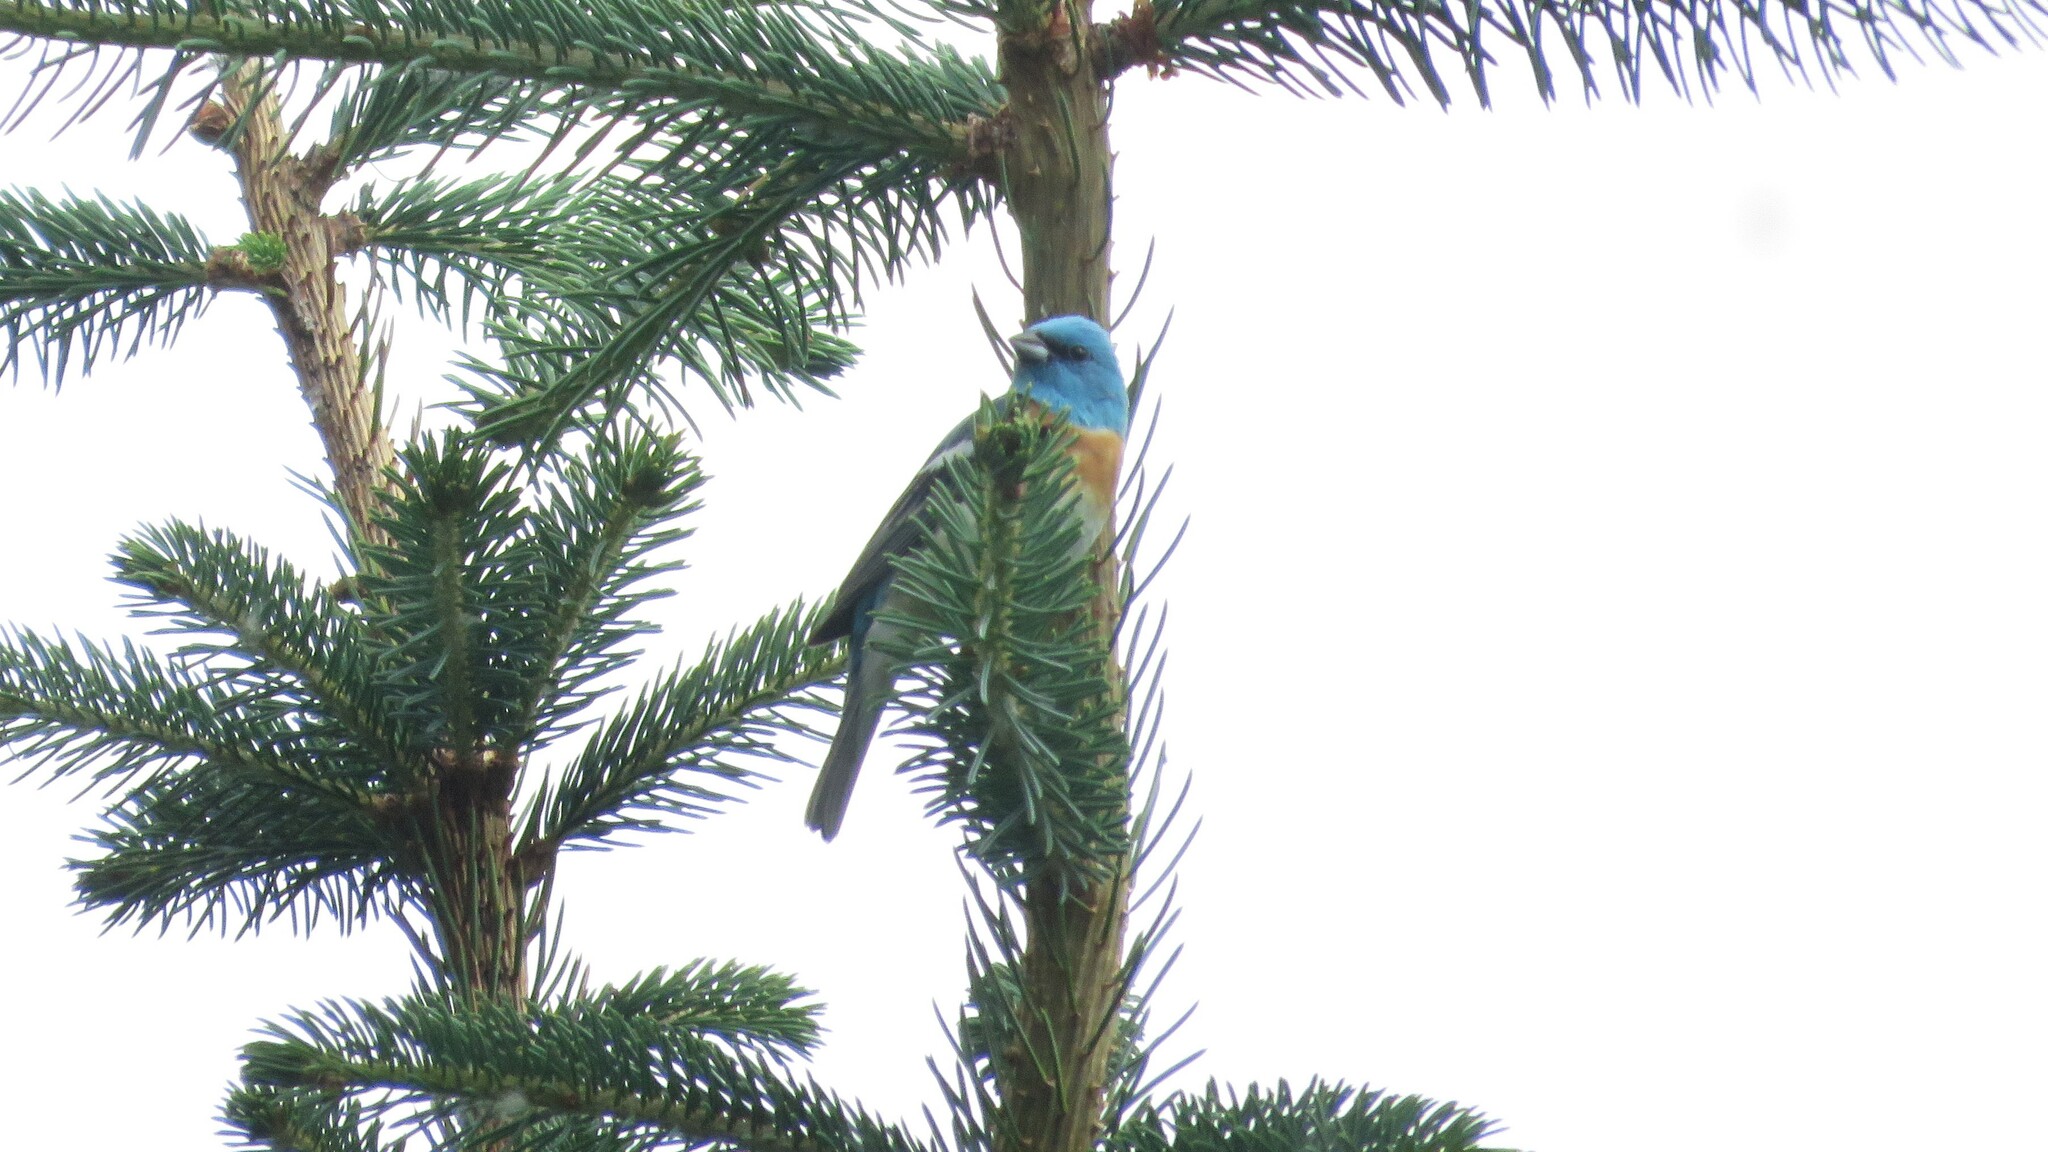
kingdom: Animalia
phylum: Chordata
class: Aves
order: Passeriformes
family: Cardinalidae
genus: Passerina
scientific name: Passerina amoena
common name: Lazuli bunting
